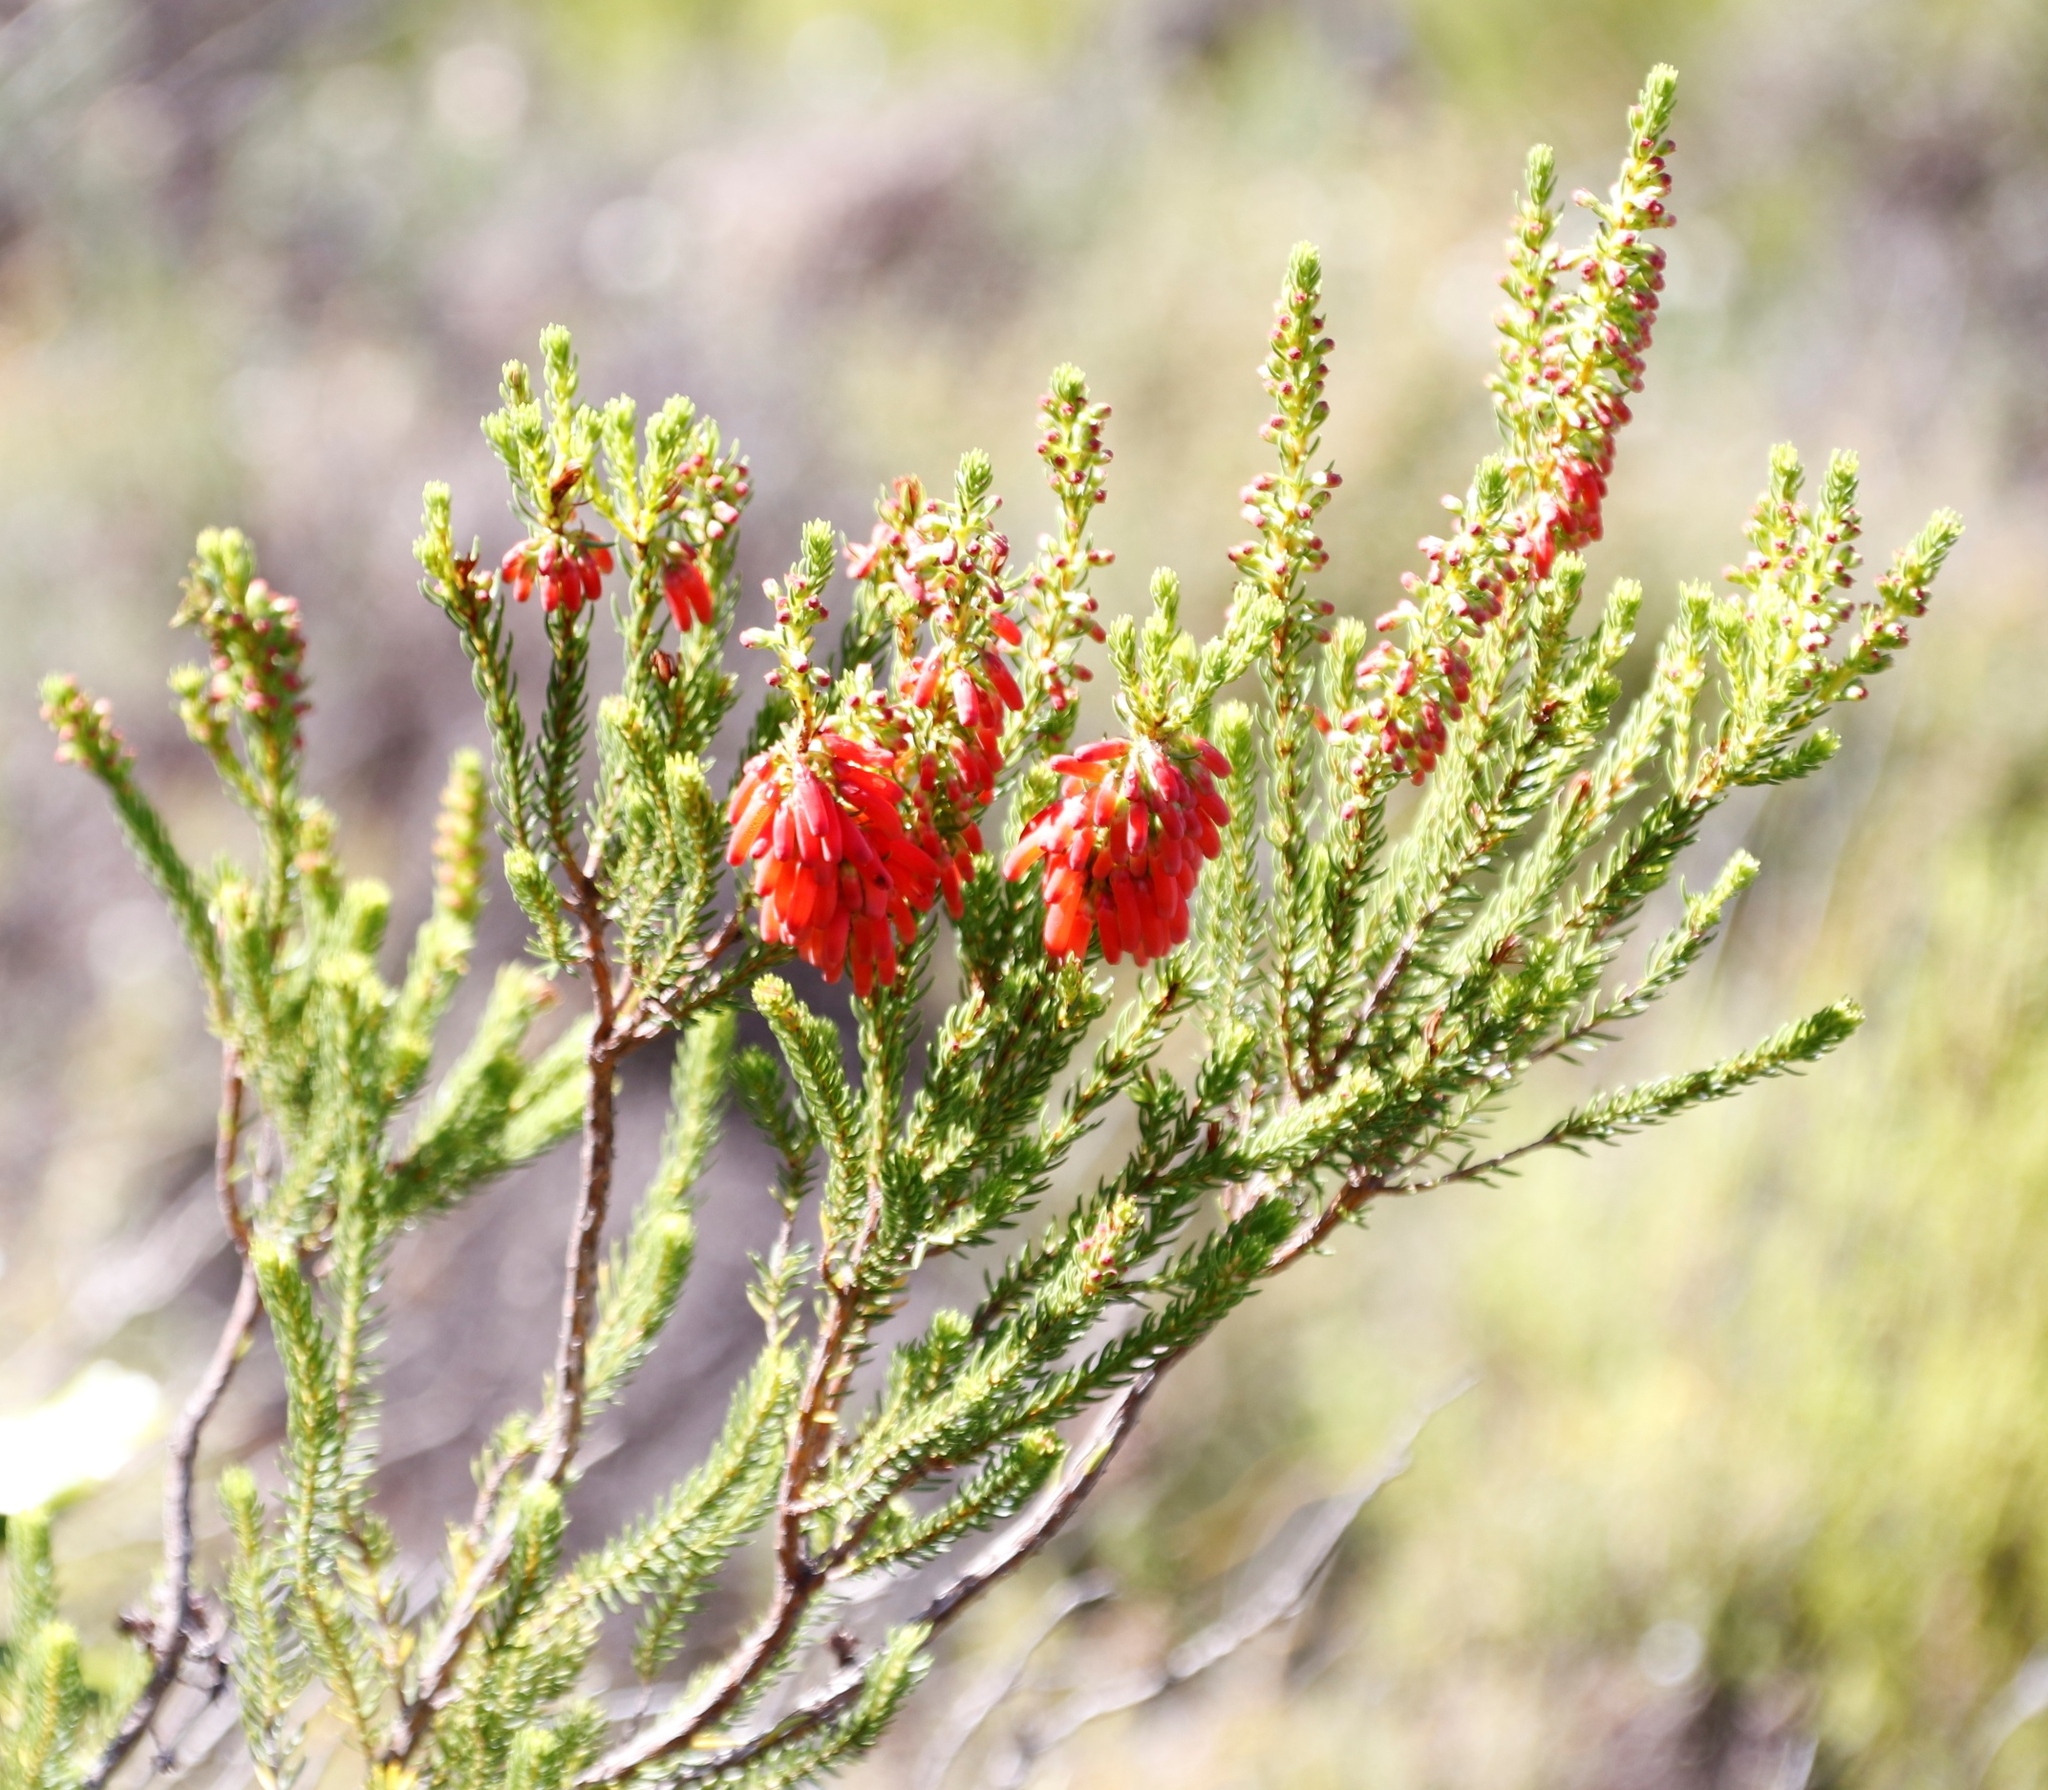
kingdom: Plantae
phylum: Tracheophyta
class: Magnoliopsida
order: Ericales
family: Ericaceae
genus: Erica
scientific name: Erica mammosa
